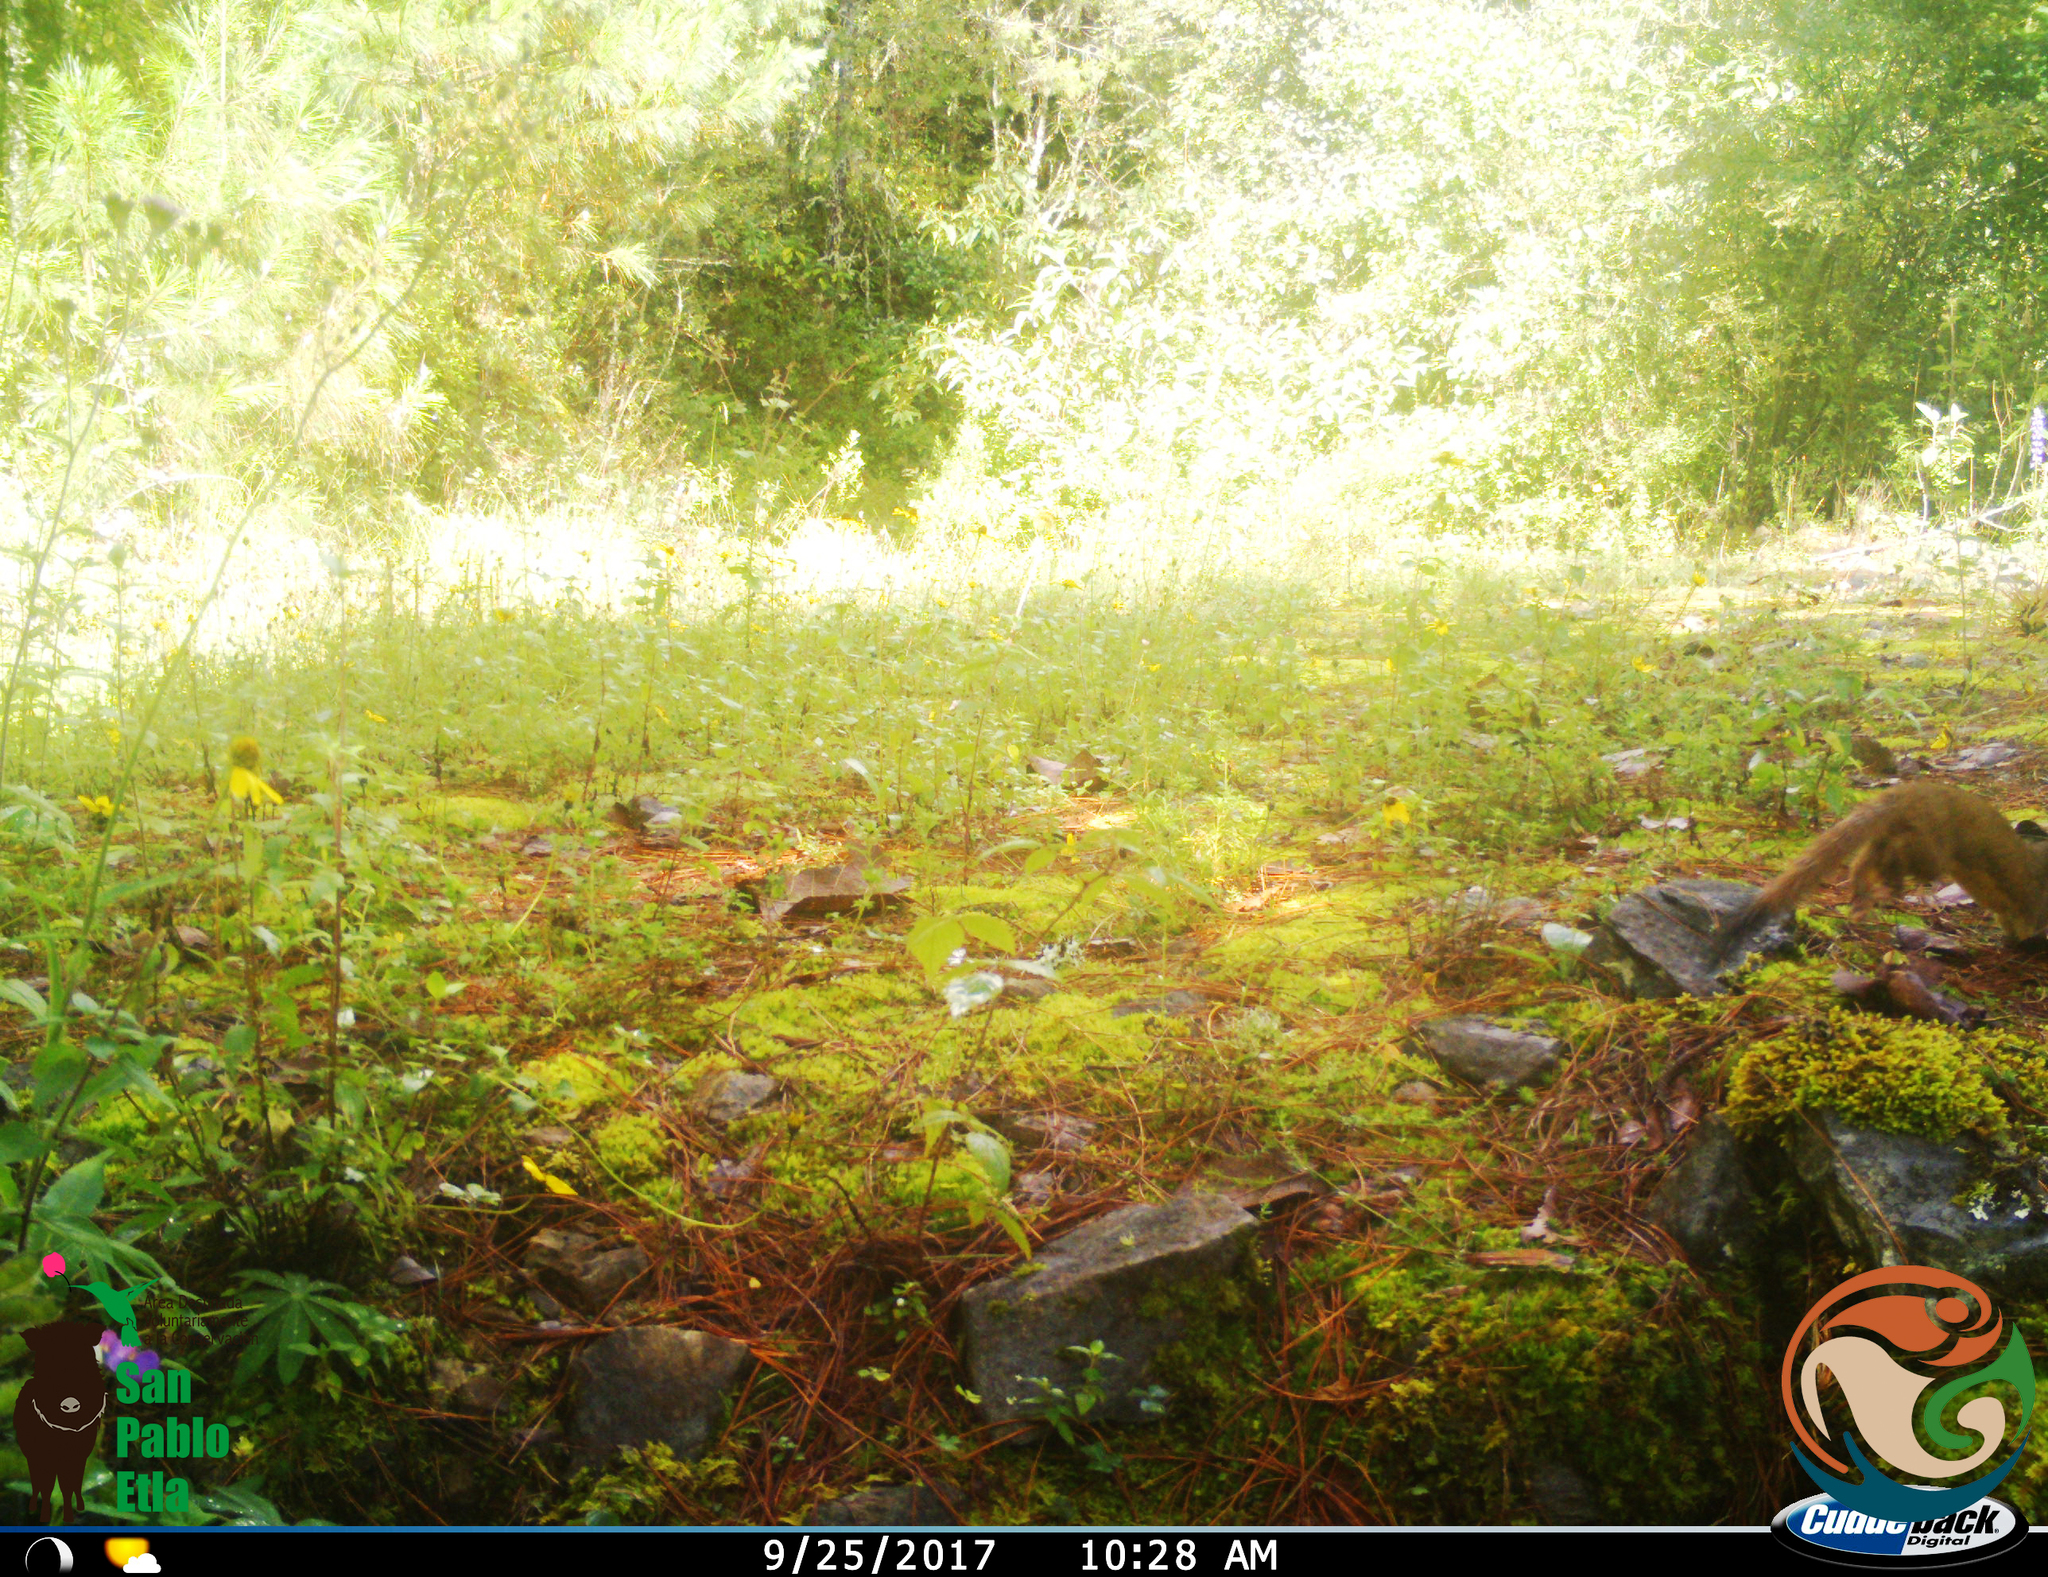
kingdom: Animalia
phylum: Chordata
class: Mammalia
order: Carnivora
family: Mustelidae
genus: Mustela
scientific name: Mustela
